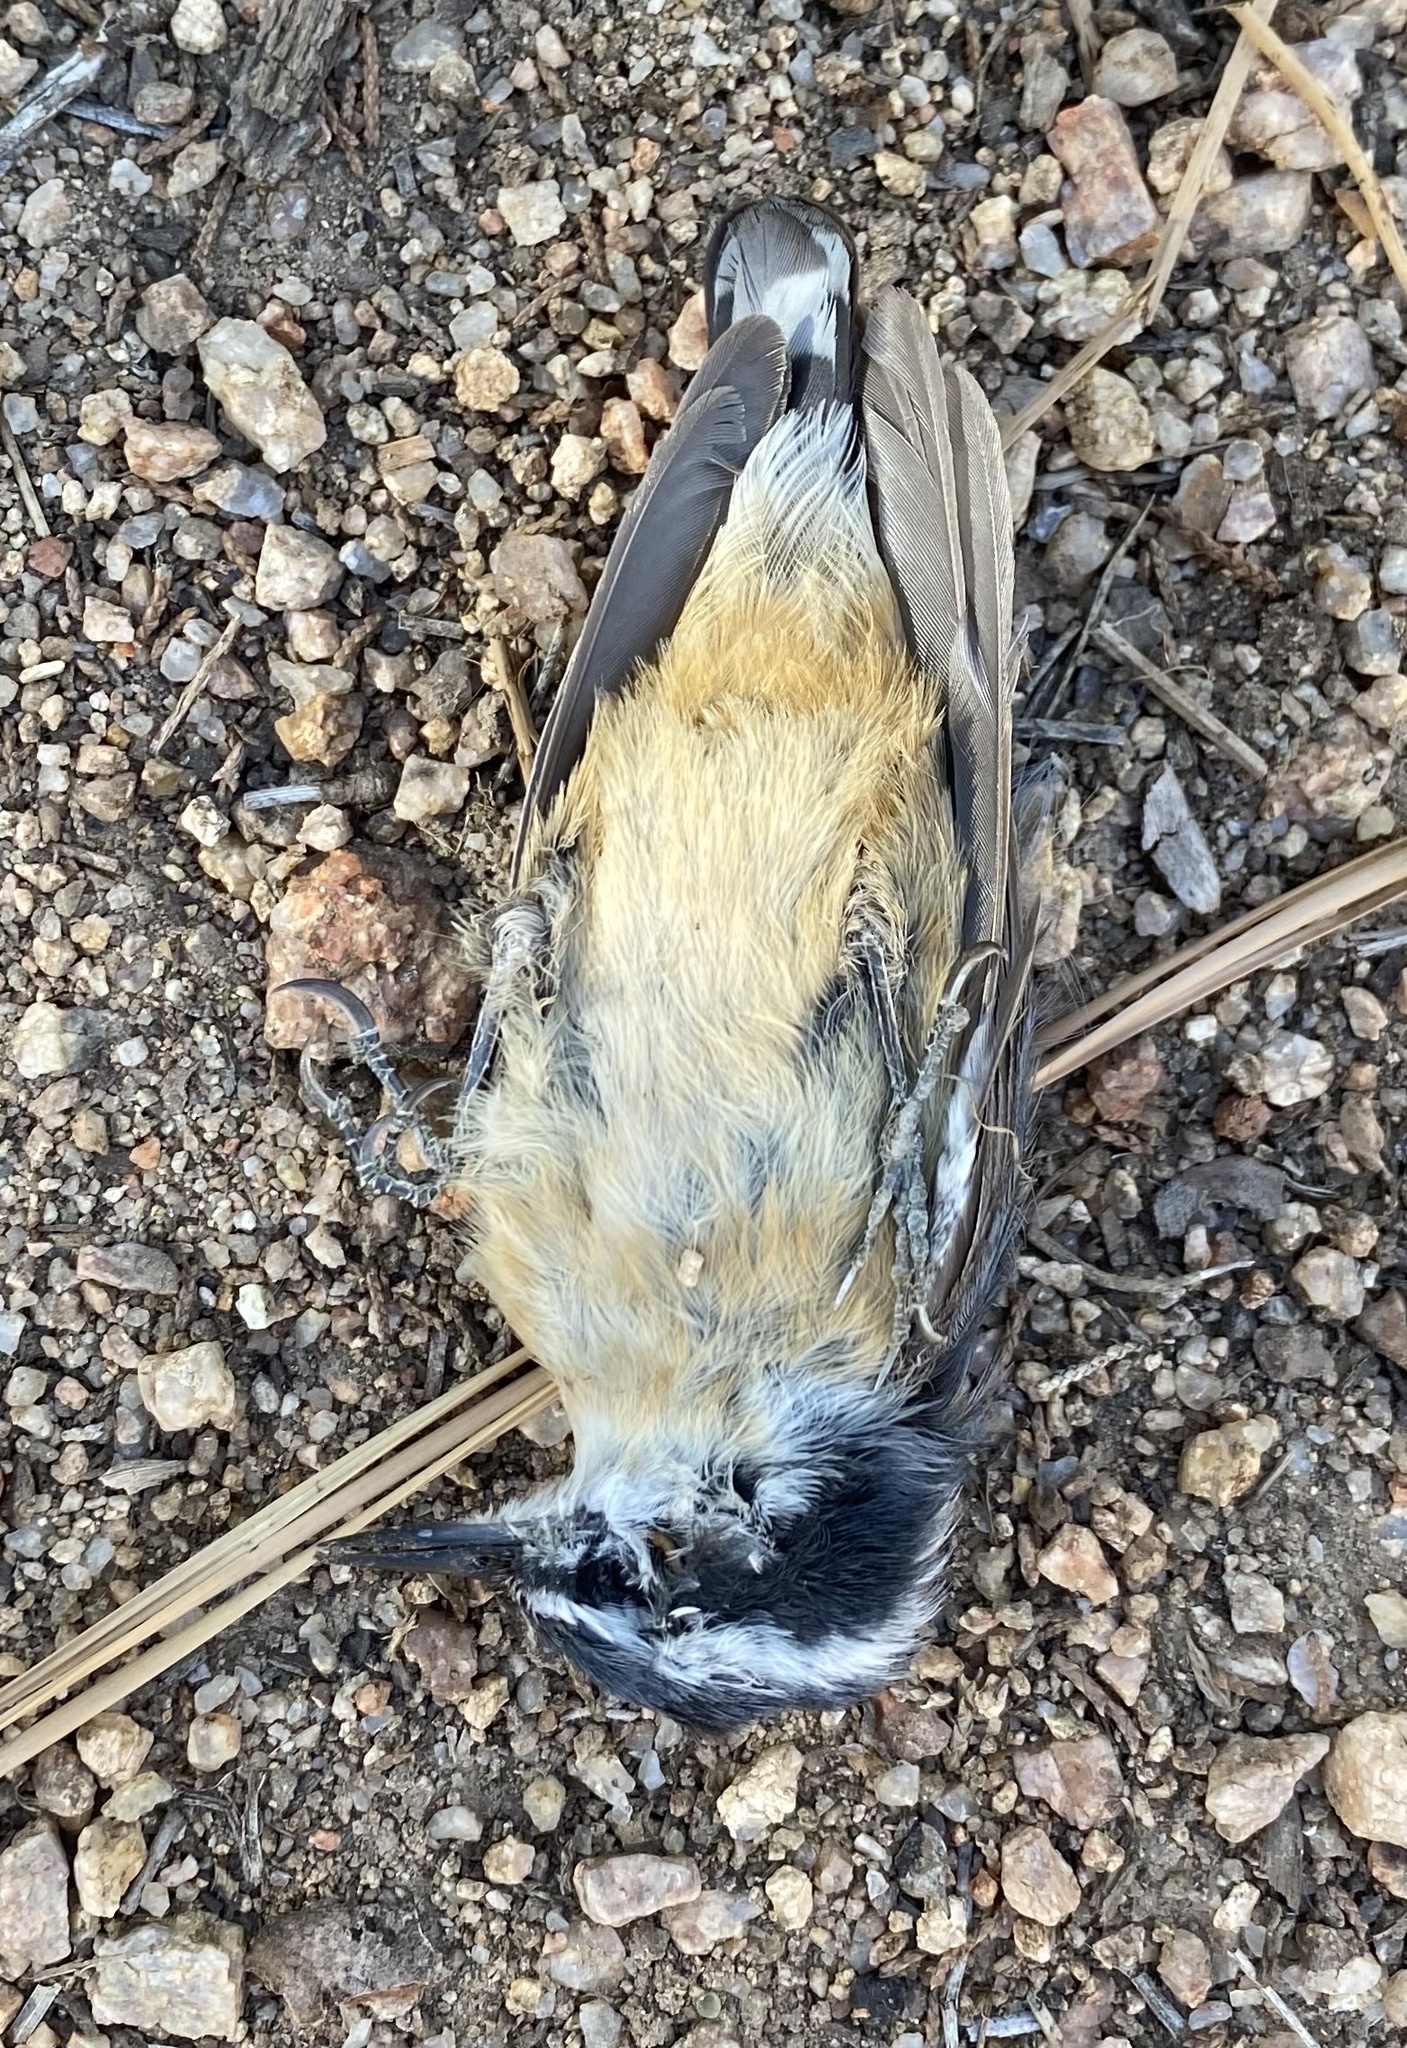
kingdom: Animalia
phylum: Chordata
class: Aves
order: Passeriformes
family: Sittidae
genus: Sitta
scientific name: Sitta canadensis
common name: Red-breasted nuthatch
